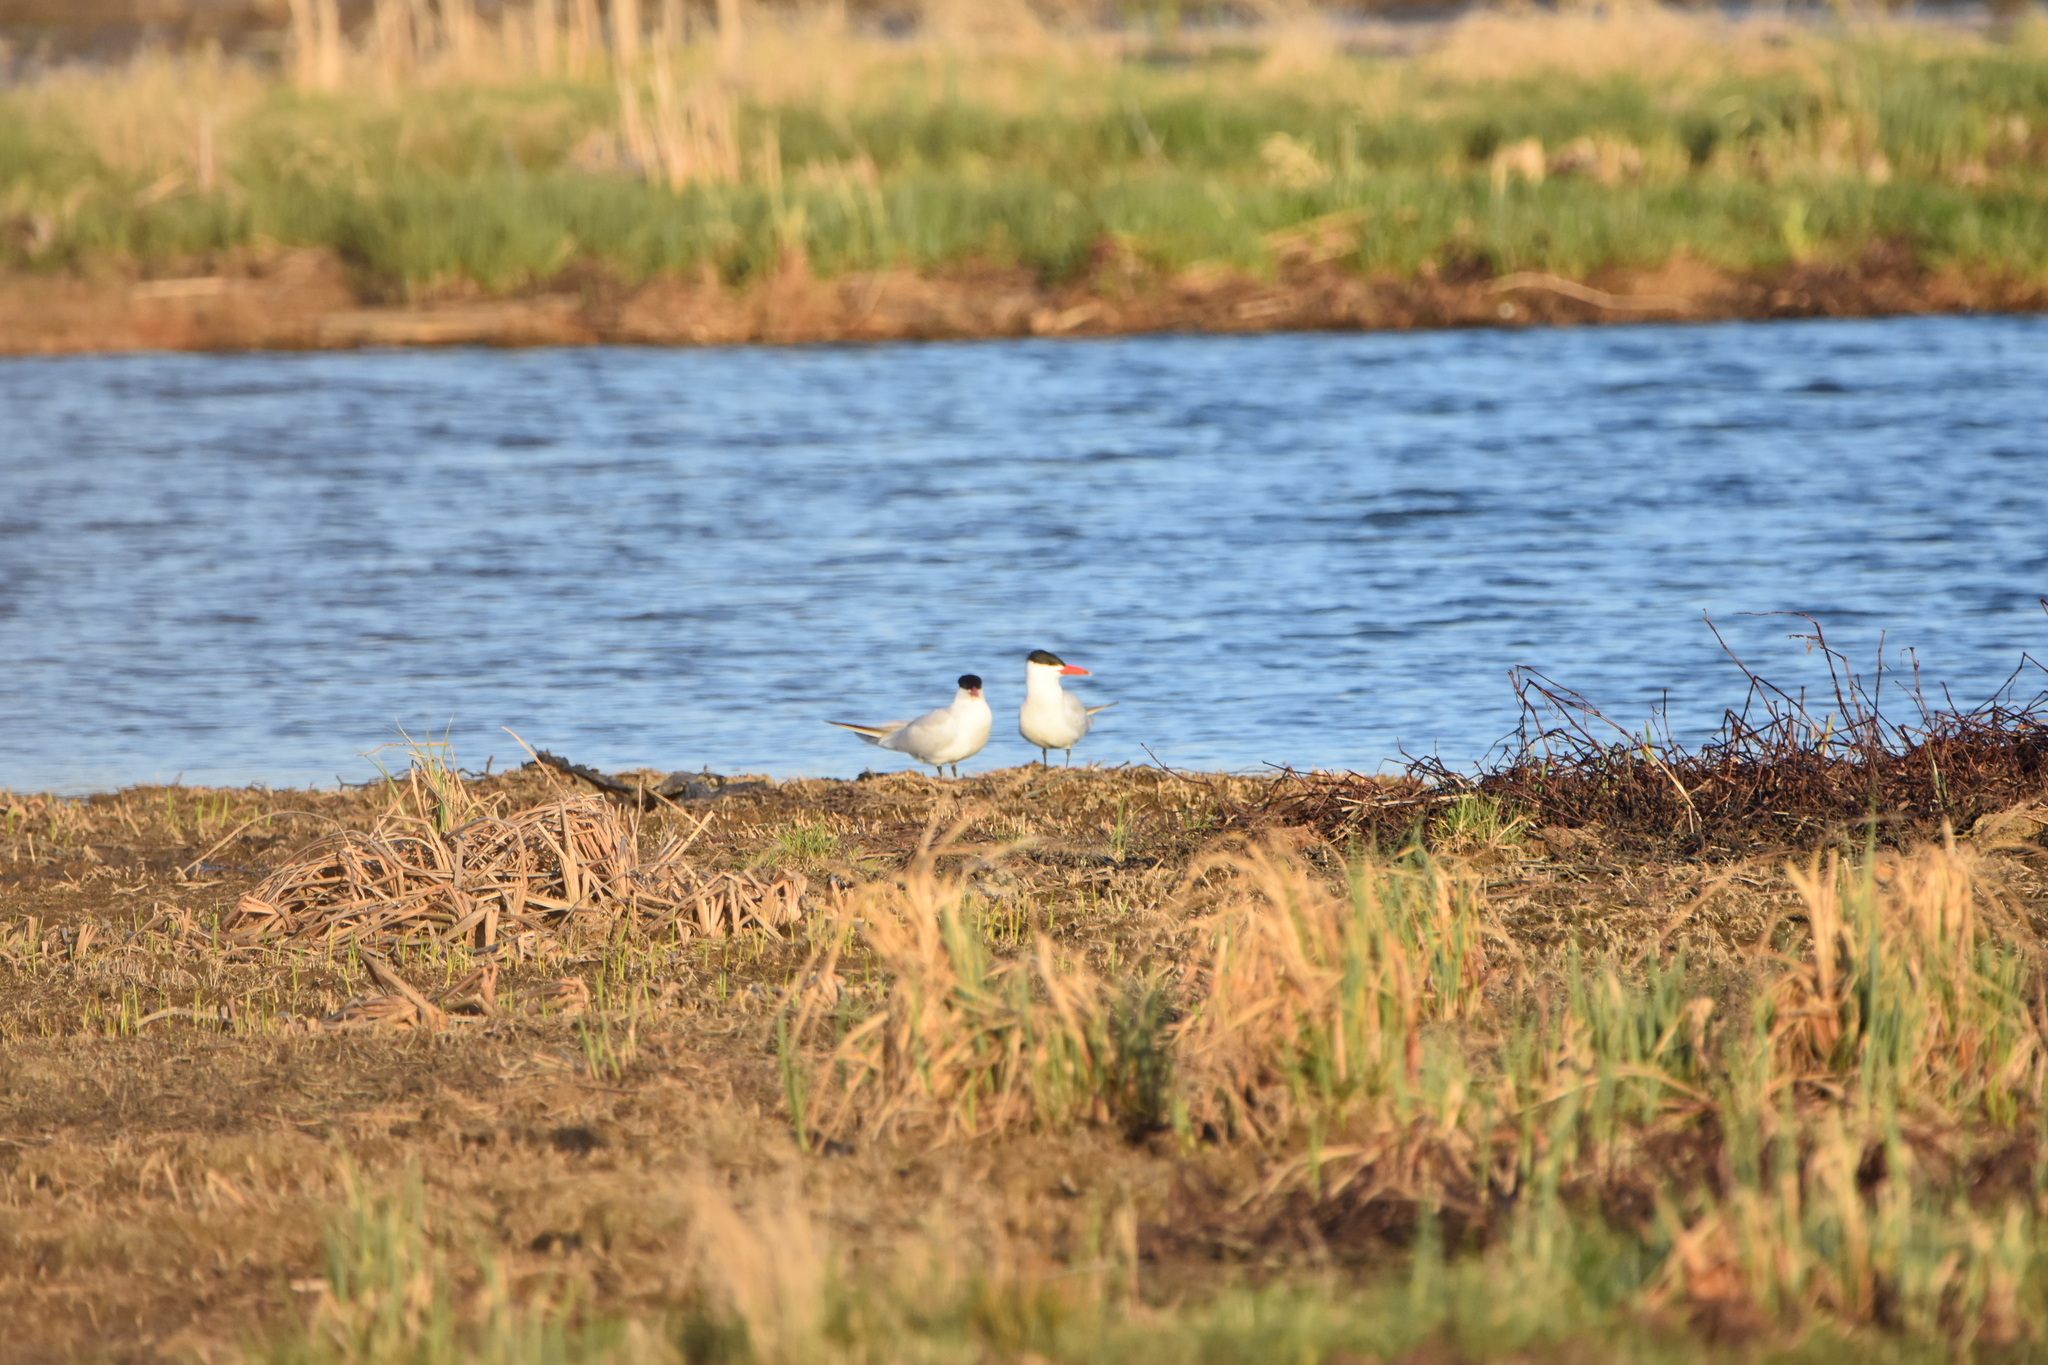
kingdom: Animalia
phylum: Chordata
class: Aves
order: Charadriiformes
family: Laridae
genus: Hydroprogne
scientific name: Hydroprogne caspia
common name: Caspian tern
